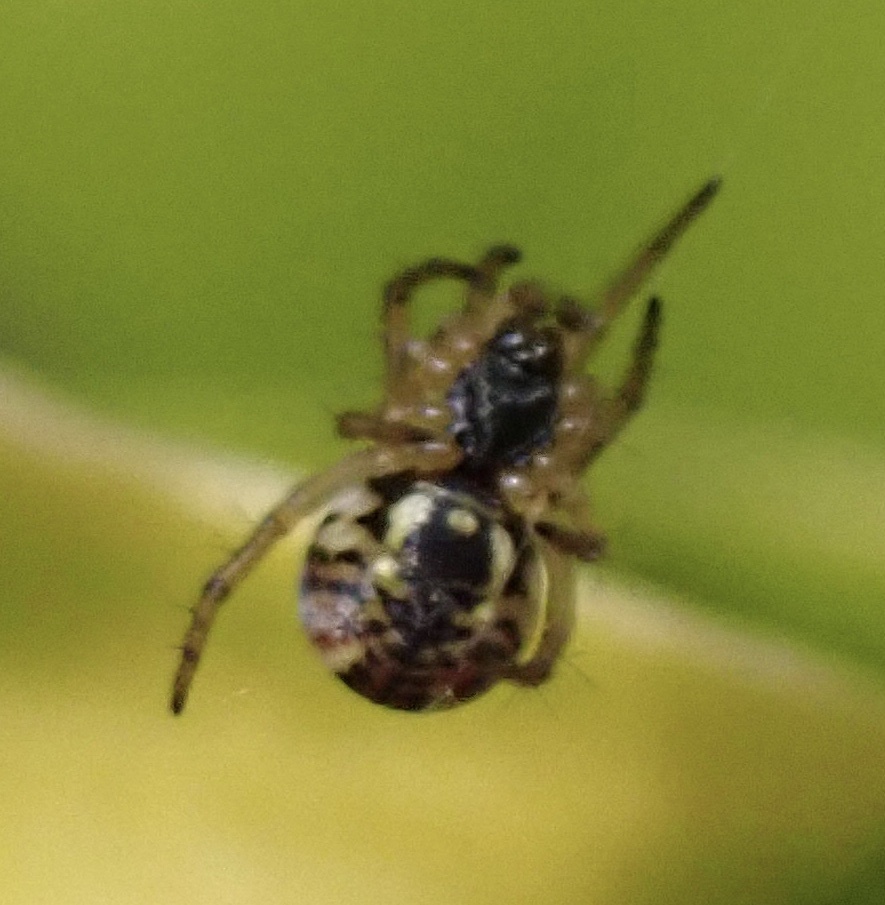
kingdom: Animalia
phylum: Arthropoda
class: Arachnida
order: Araneae
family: Araneidae
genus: Mangora
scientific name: Mangora acalypha
